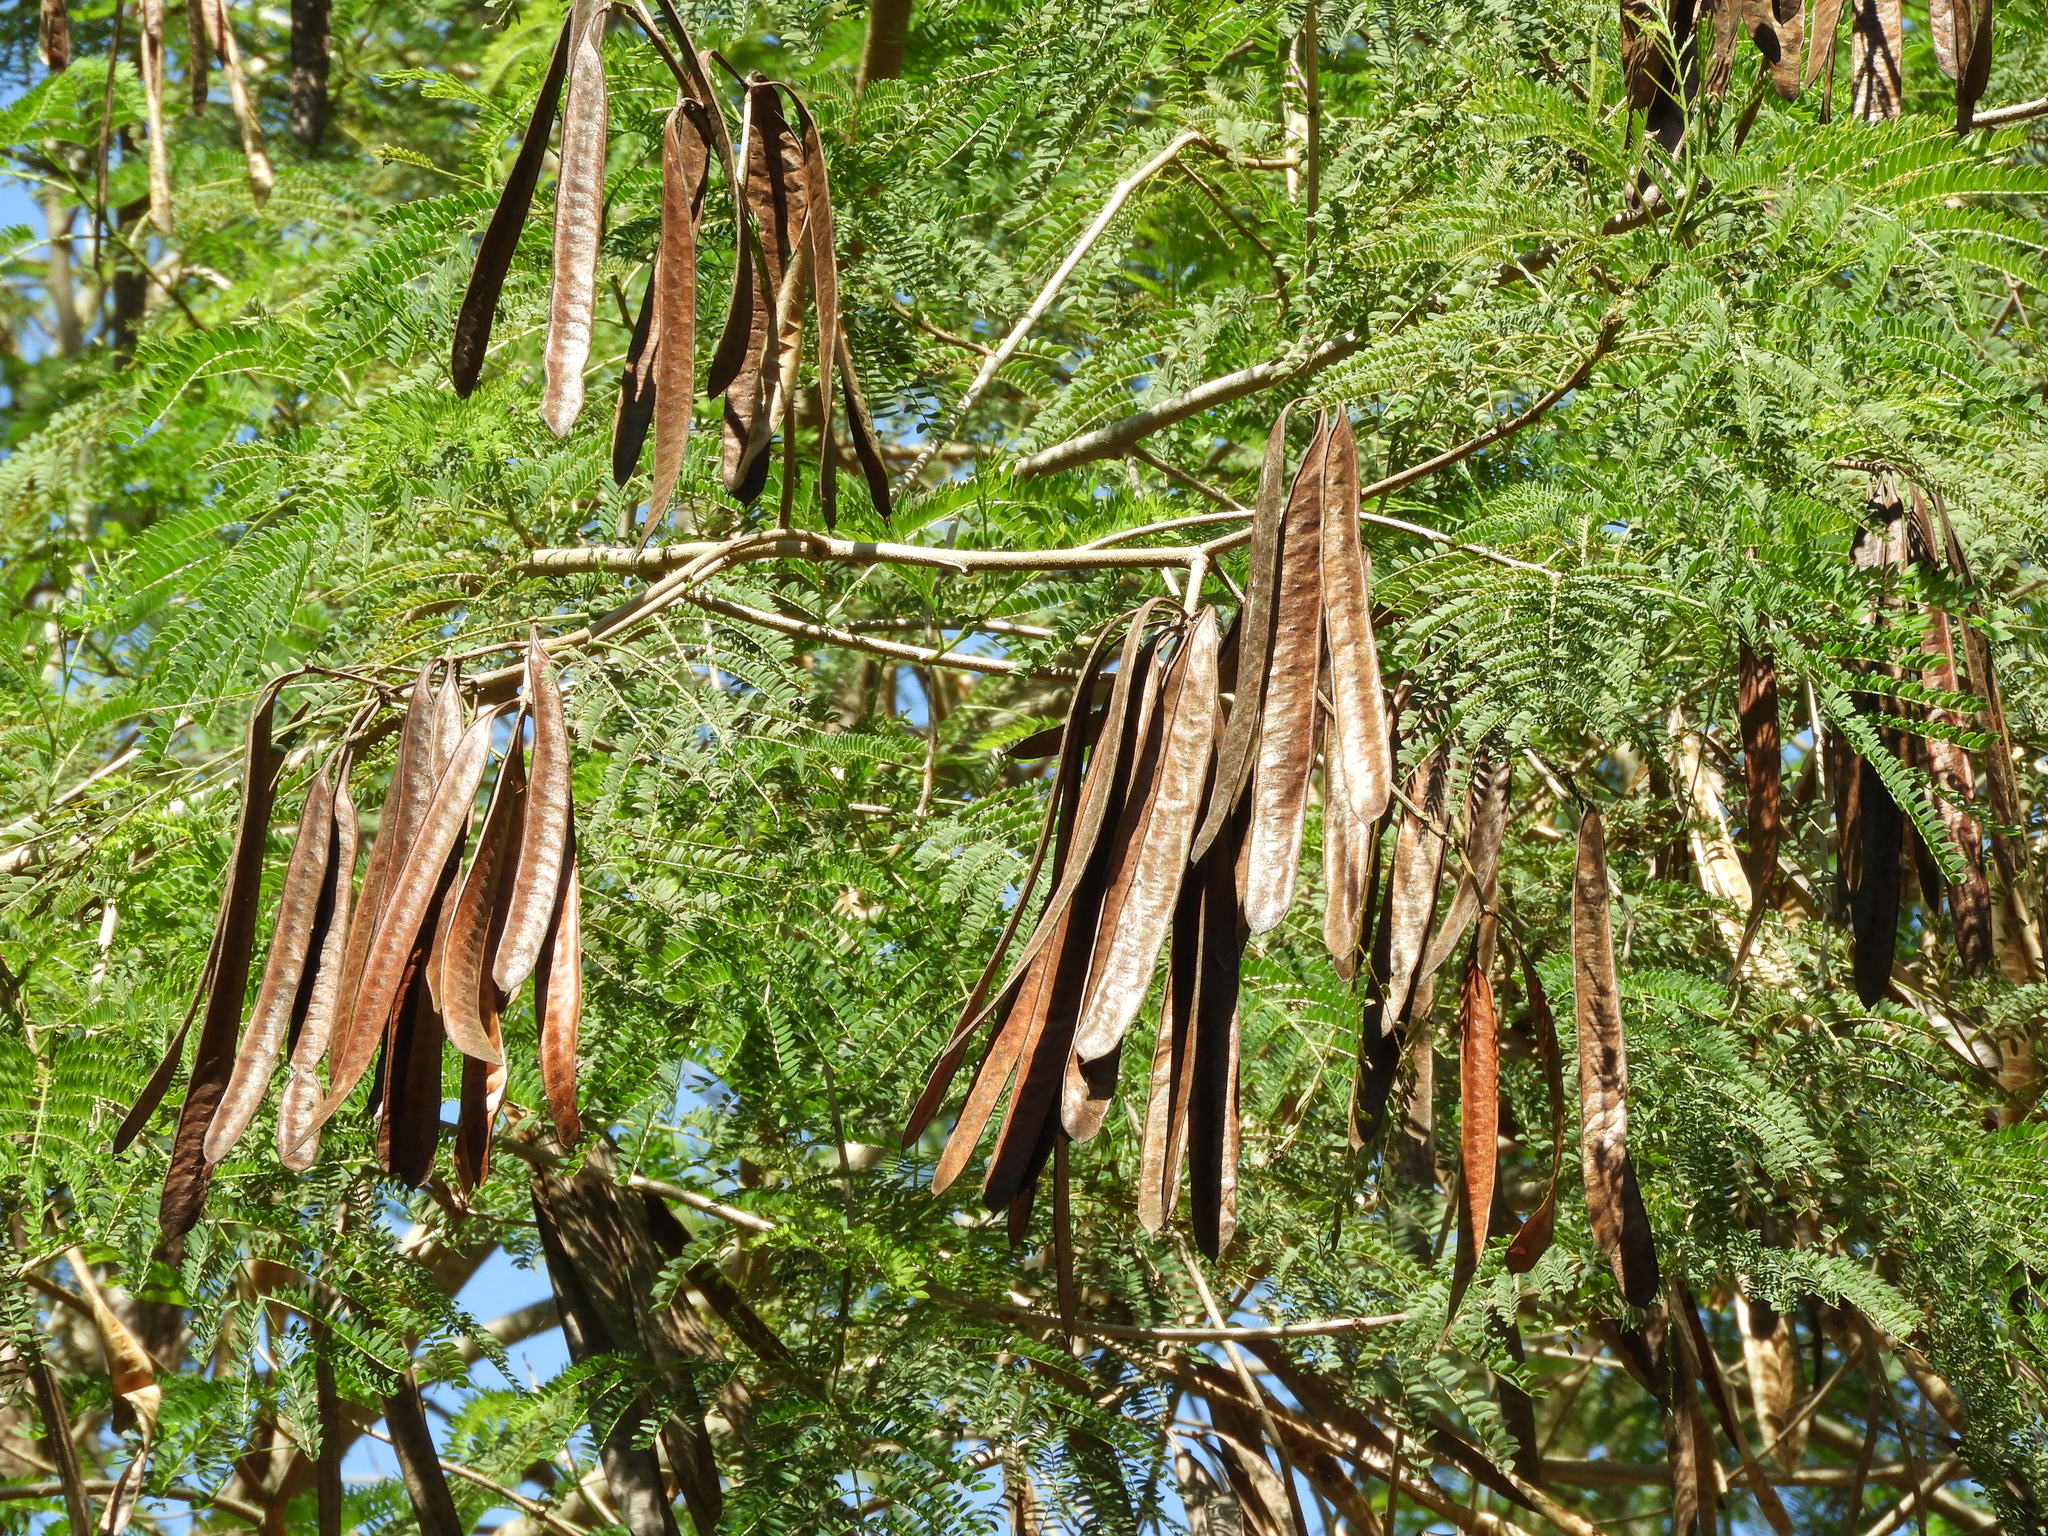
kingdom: Plantae
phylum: Tracheophyta
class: Magnoliopsida
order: Fabales
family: Fabaceae
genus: Leucaena
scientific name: Leucaena leucocephala
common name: White leadtree
